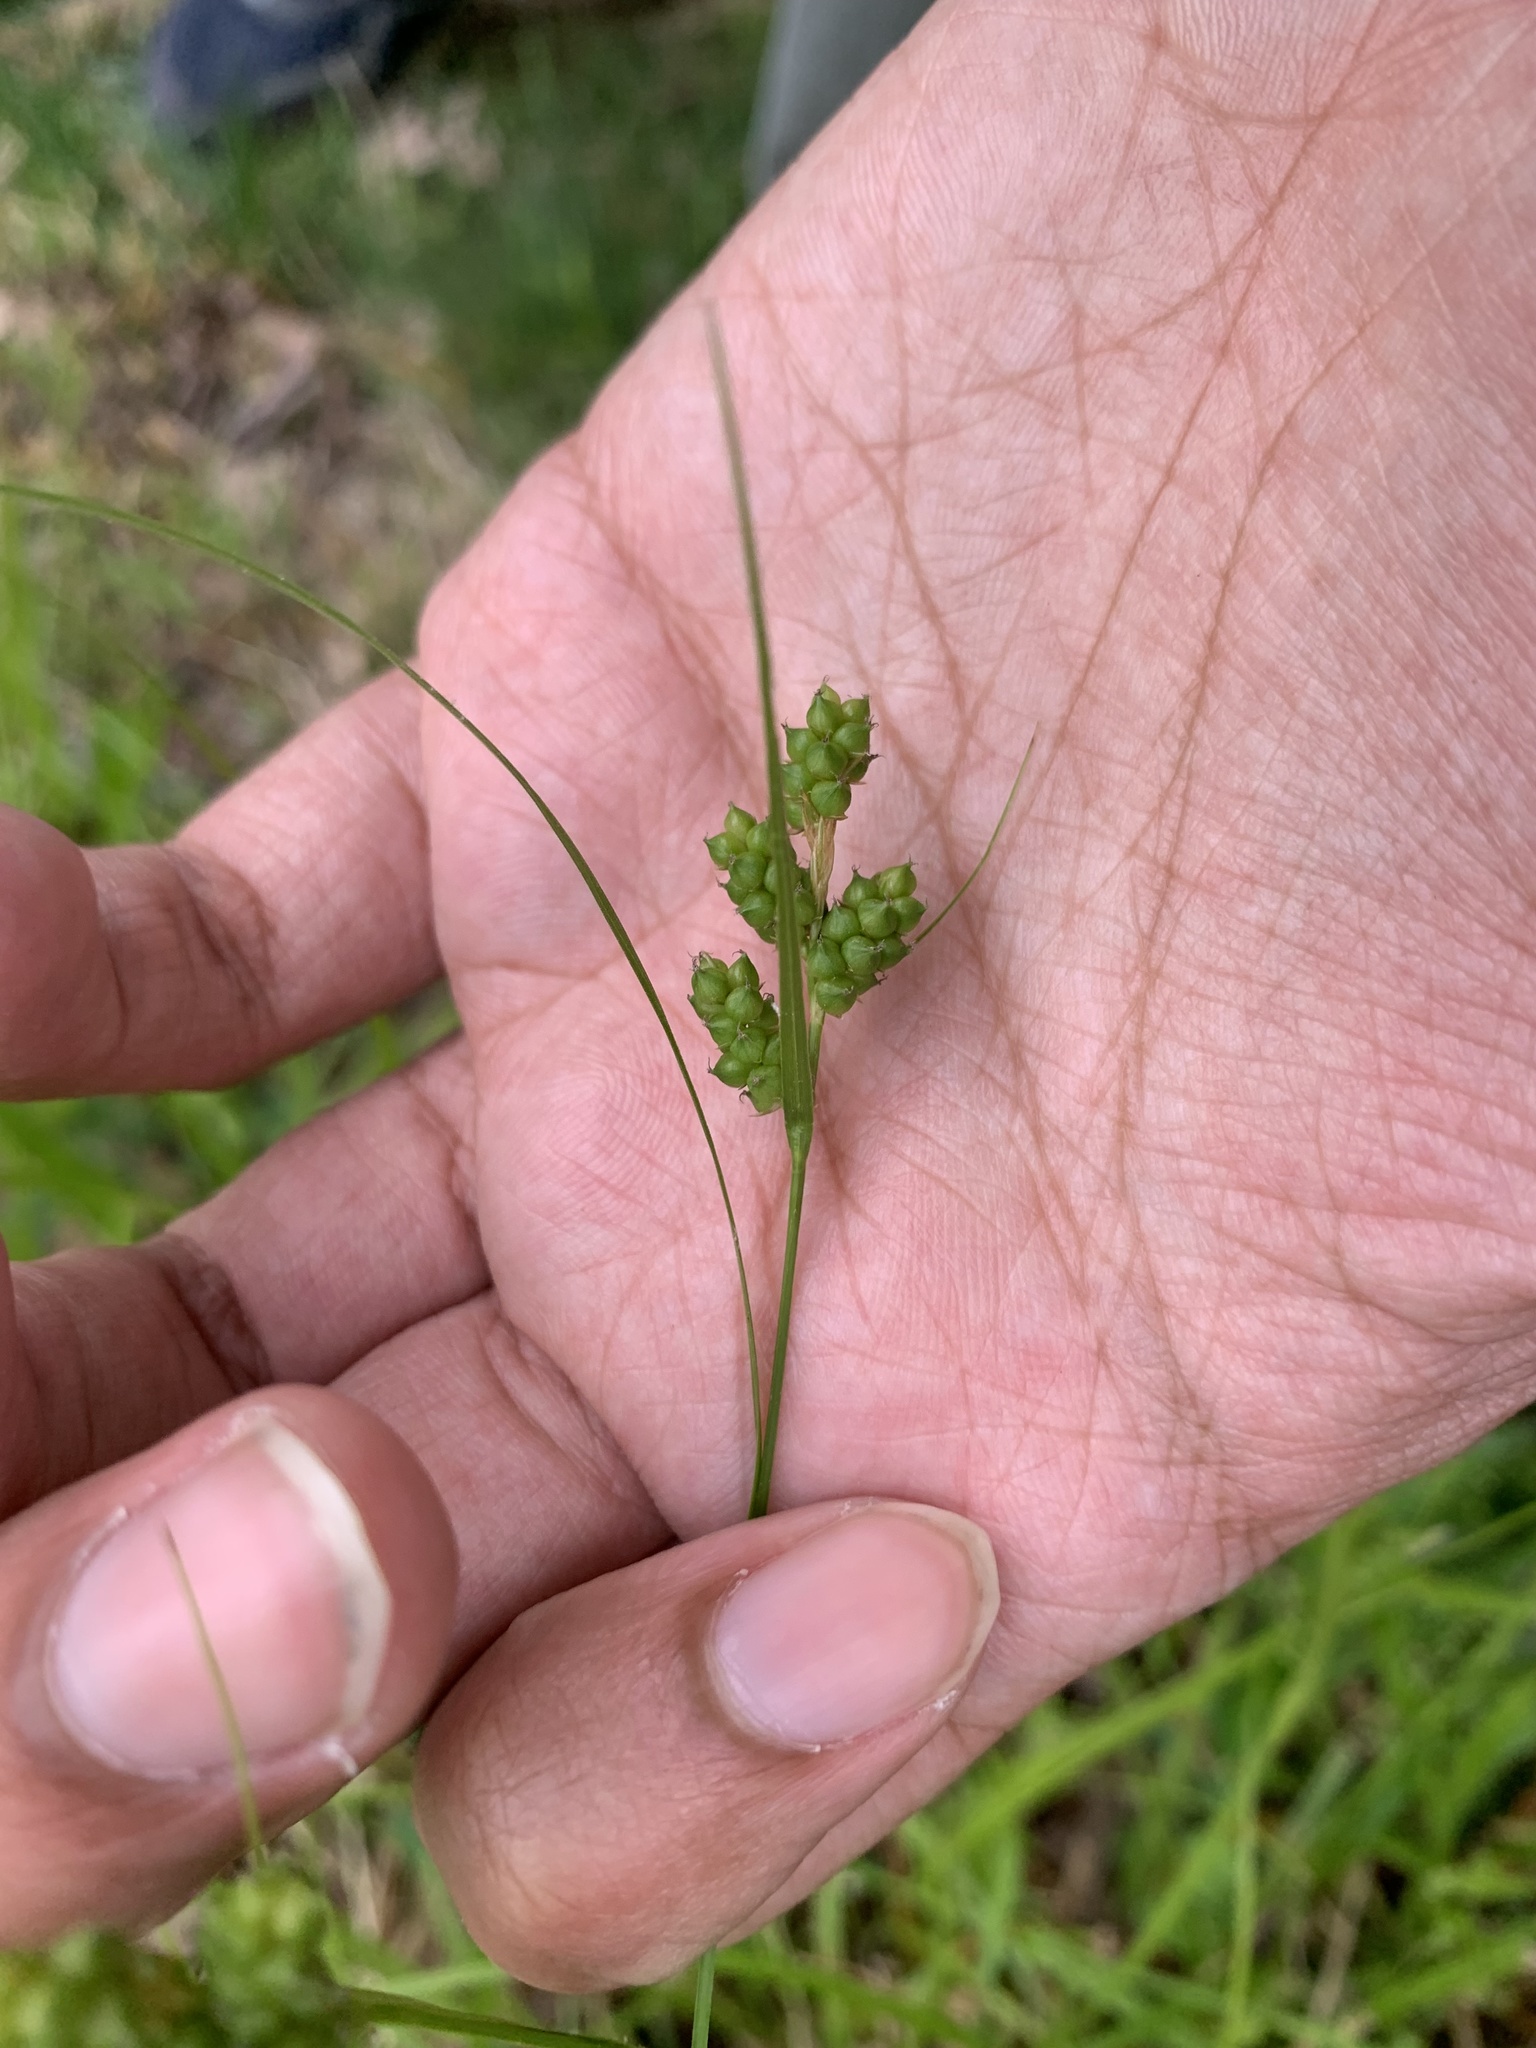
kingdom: Plantae
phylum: Tracheophyta
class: Liliopsida
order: Poales
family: Cyperaceae
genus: Carex
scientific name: Carex caroliniana
